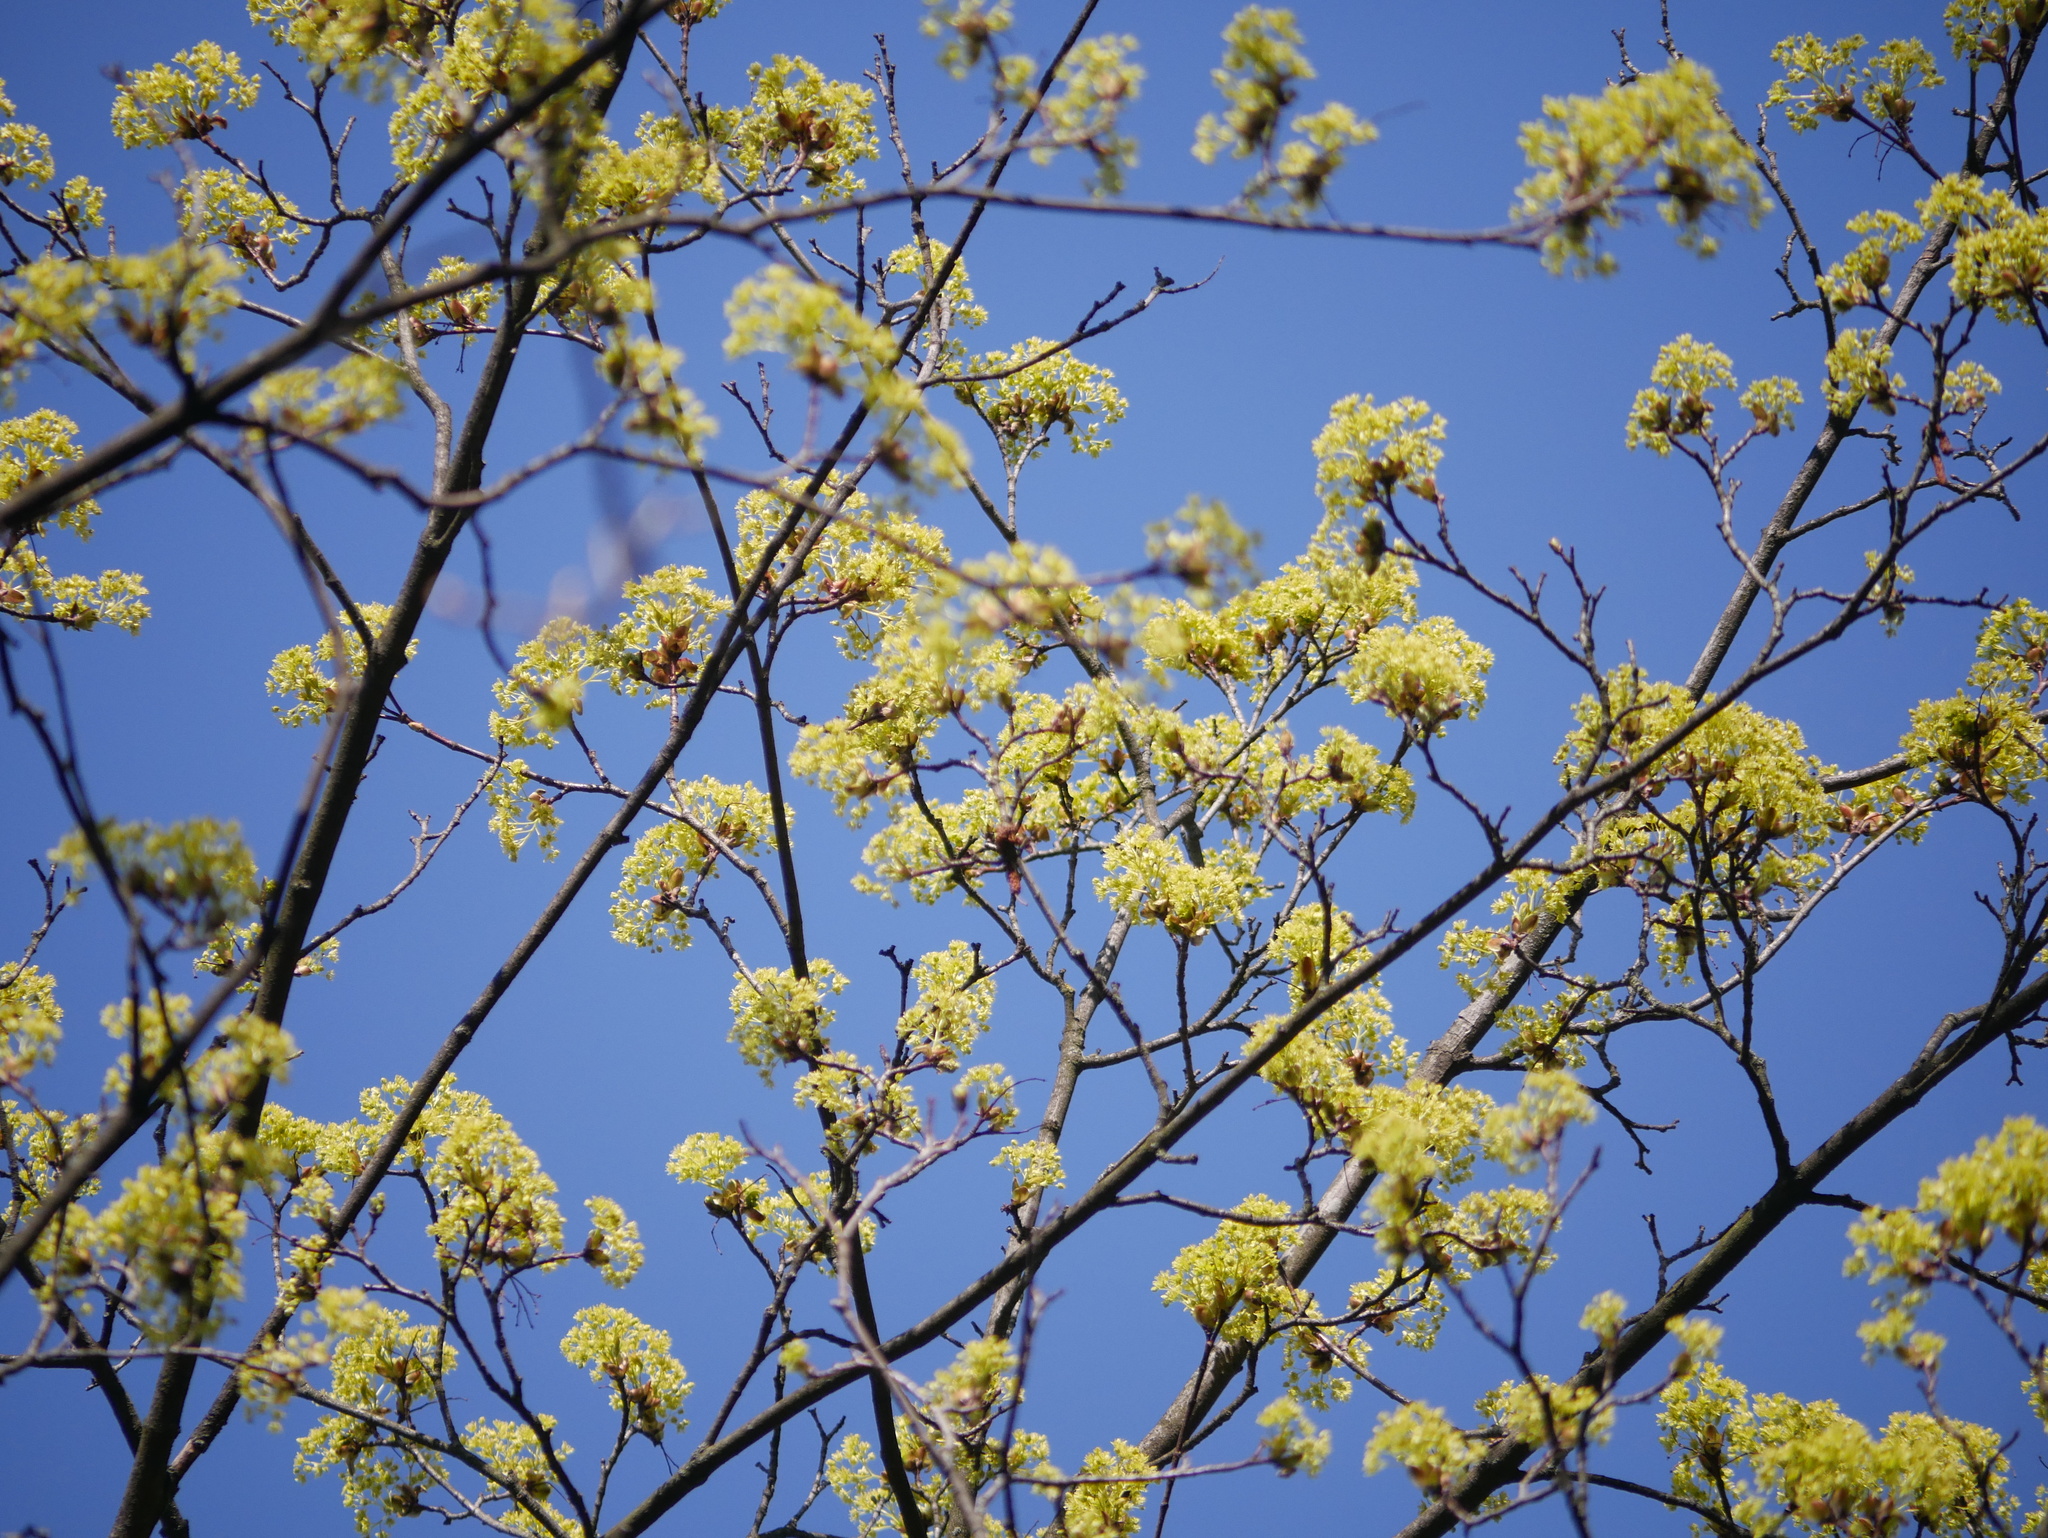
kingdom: Plantae
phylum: Tracheophyta
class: Magnoliopsida
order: Sapindales
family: Sapindaceae
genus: Acer
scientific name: Acer platanoides
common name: Norway maple
